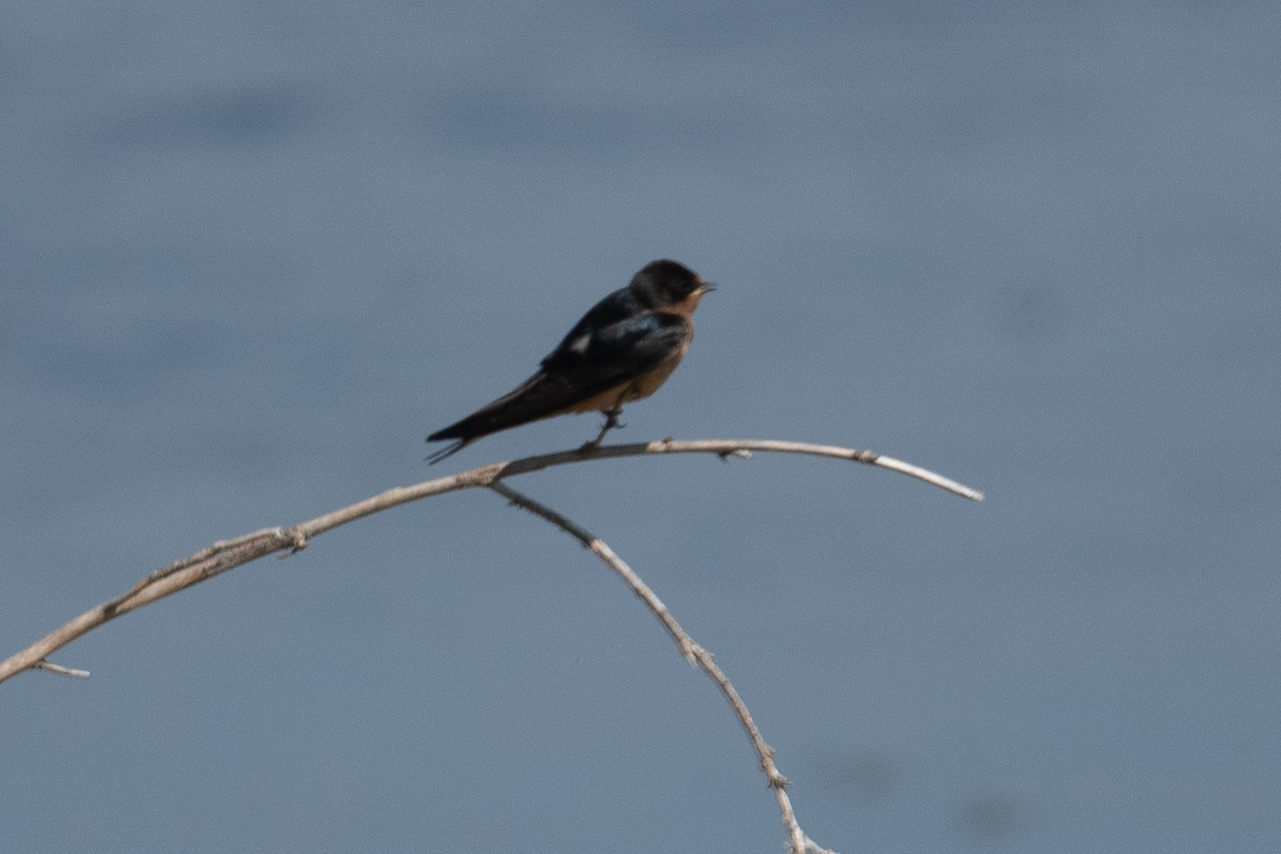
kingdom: Animalia
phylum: Chordata
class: Aves
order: Passeriformes
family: Hirundinidae
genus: Hirundo
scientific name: Hirundo rustica
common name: Barn swallow
